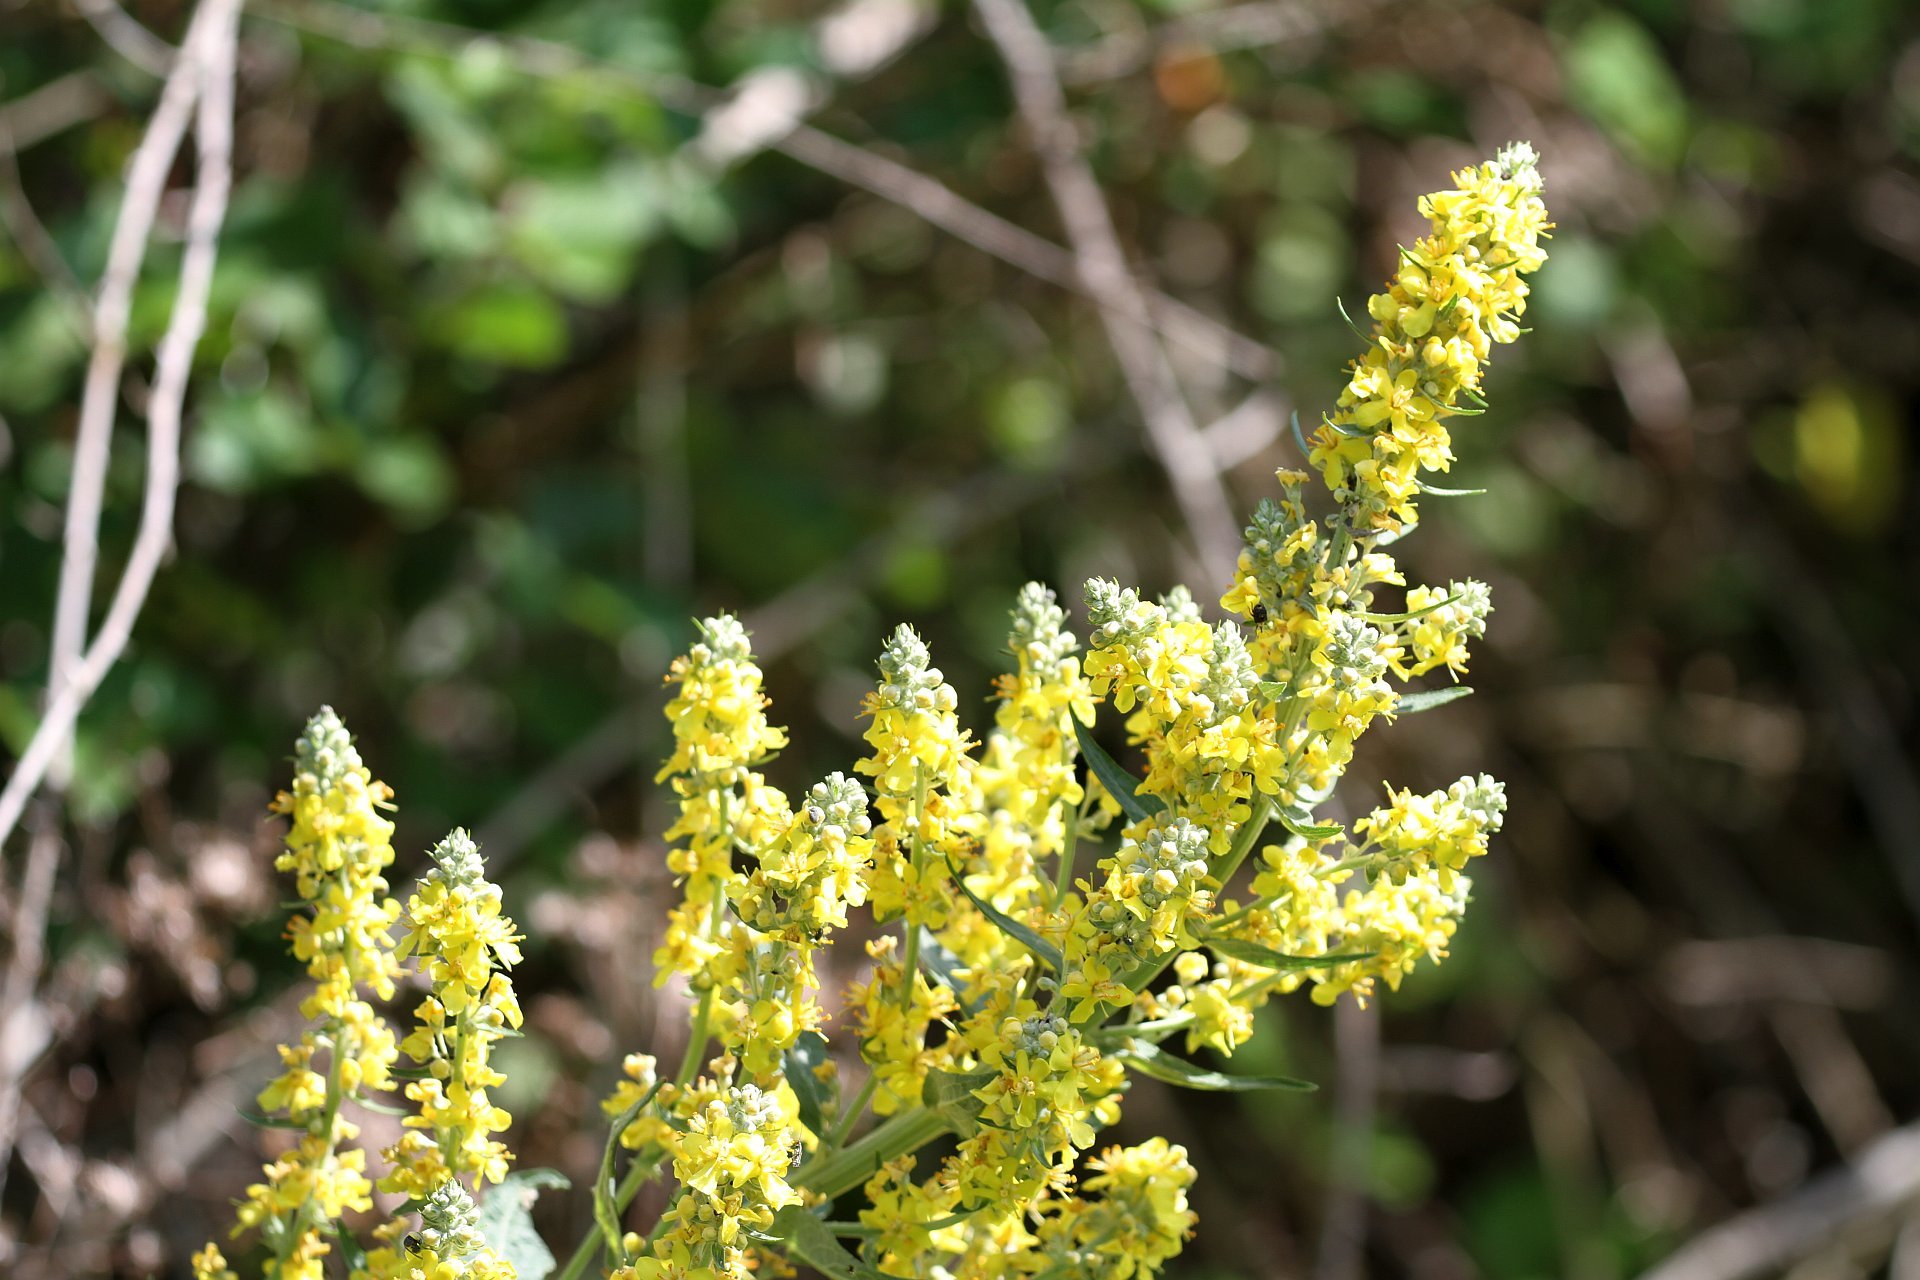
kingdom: Plantae
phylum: Tracheophyta
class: Magnoliopsida
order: Lamiales
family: Scrophulariaceae
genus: Verbascum
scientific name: Verbascum lychnitis
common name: White mullein
